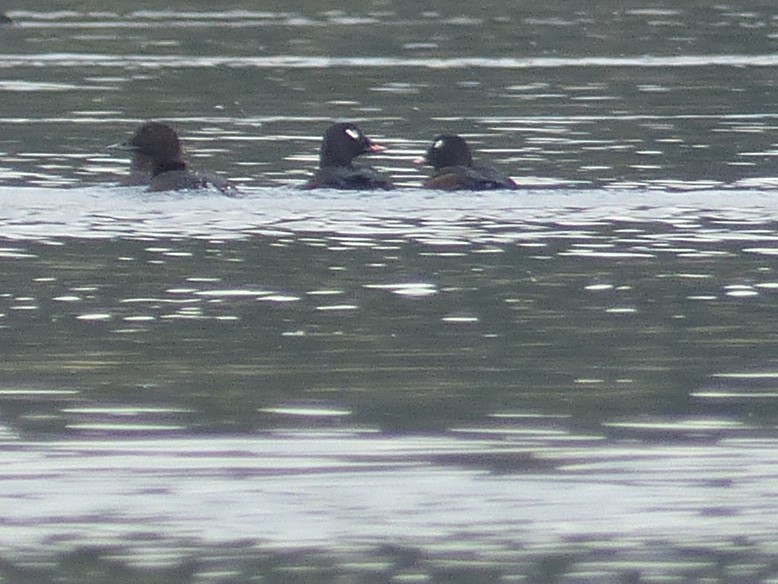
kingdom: Animalia
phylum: Chordata
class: Aves
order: Anseriformes
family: Anatidae
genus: Melanitta
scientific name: Melanitta deglandi
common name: White-winged scoter
